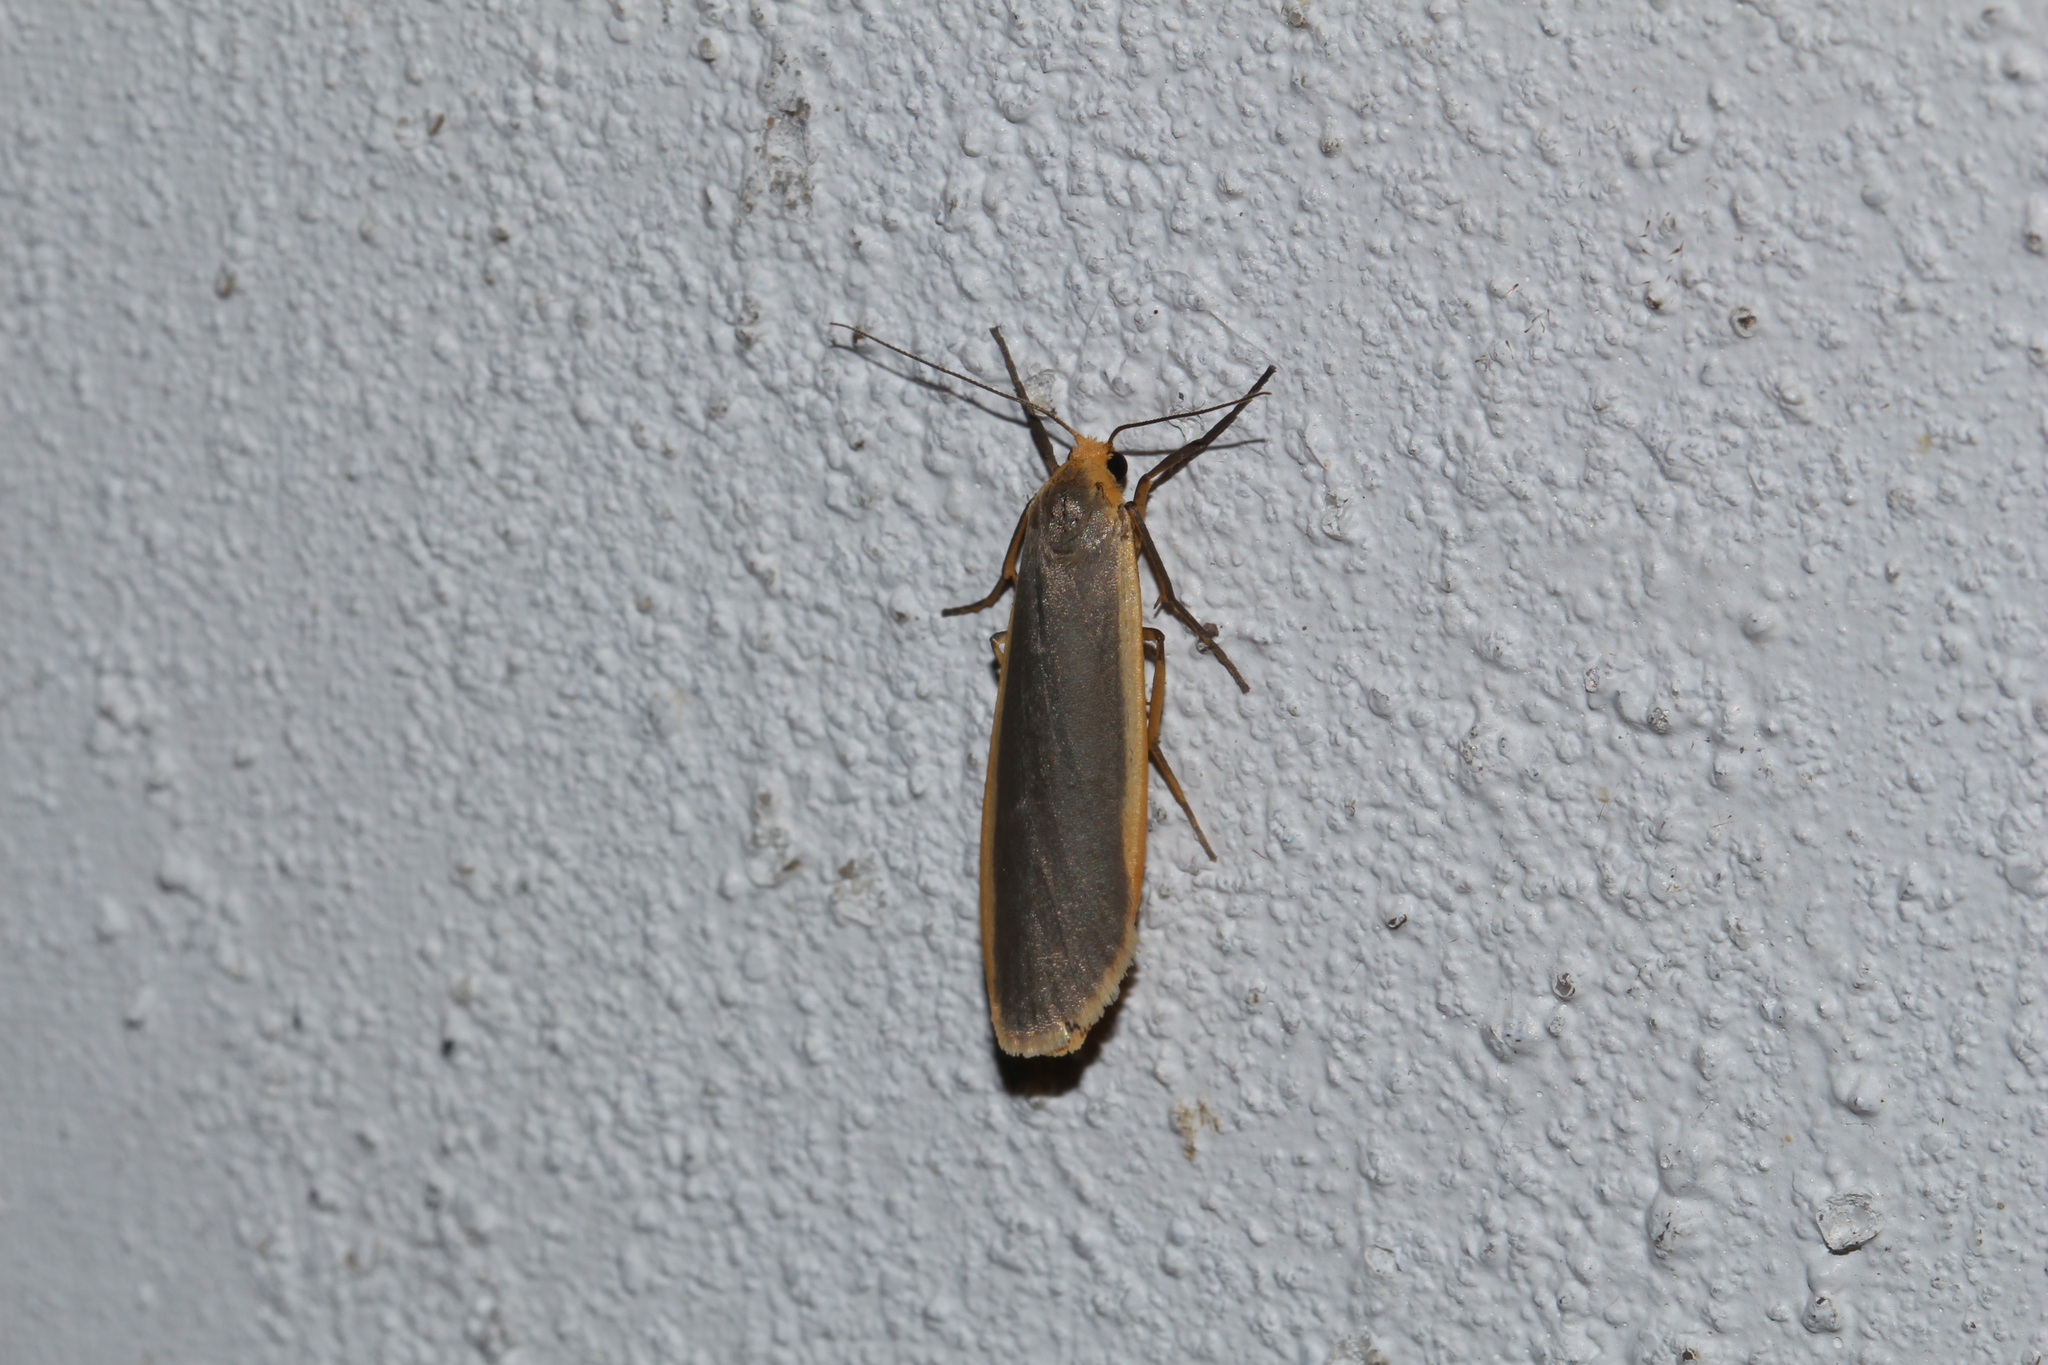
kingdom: Animalia
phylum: Arthropoda
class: Insecta
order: Lepidoptera
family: Erebidae
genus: Nyea
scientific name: Nyea lurideola
